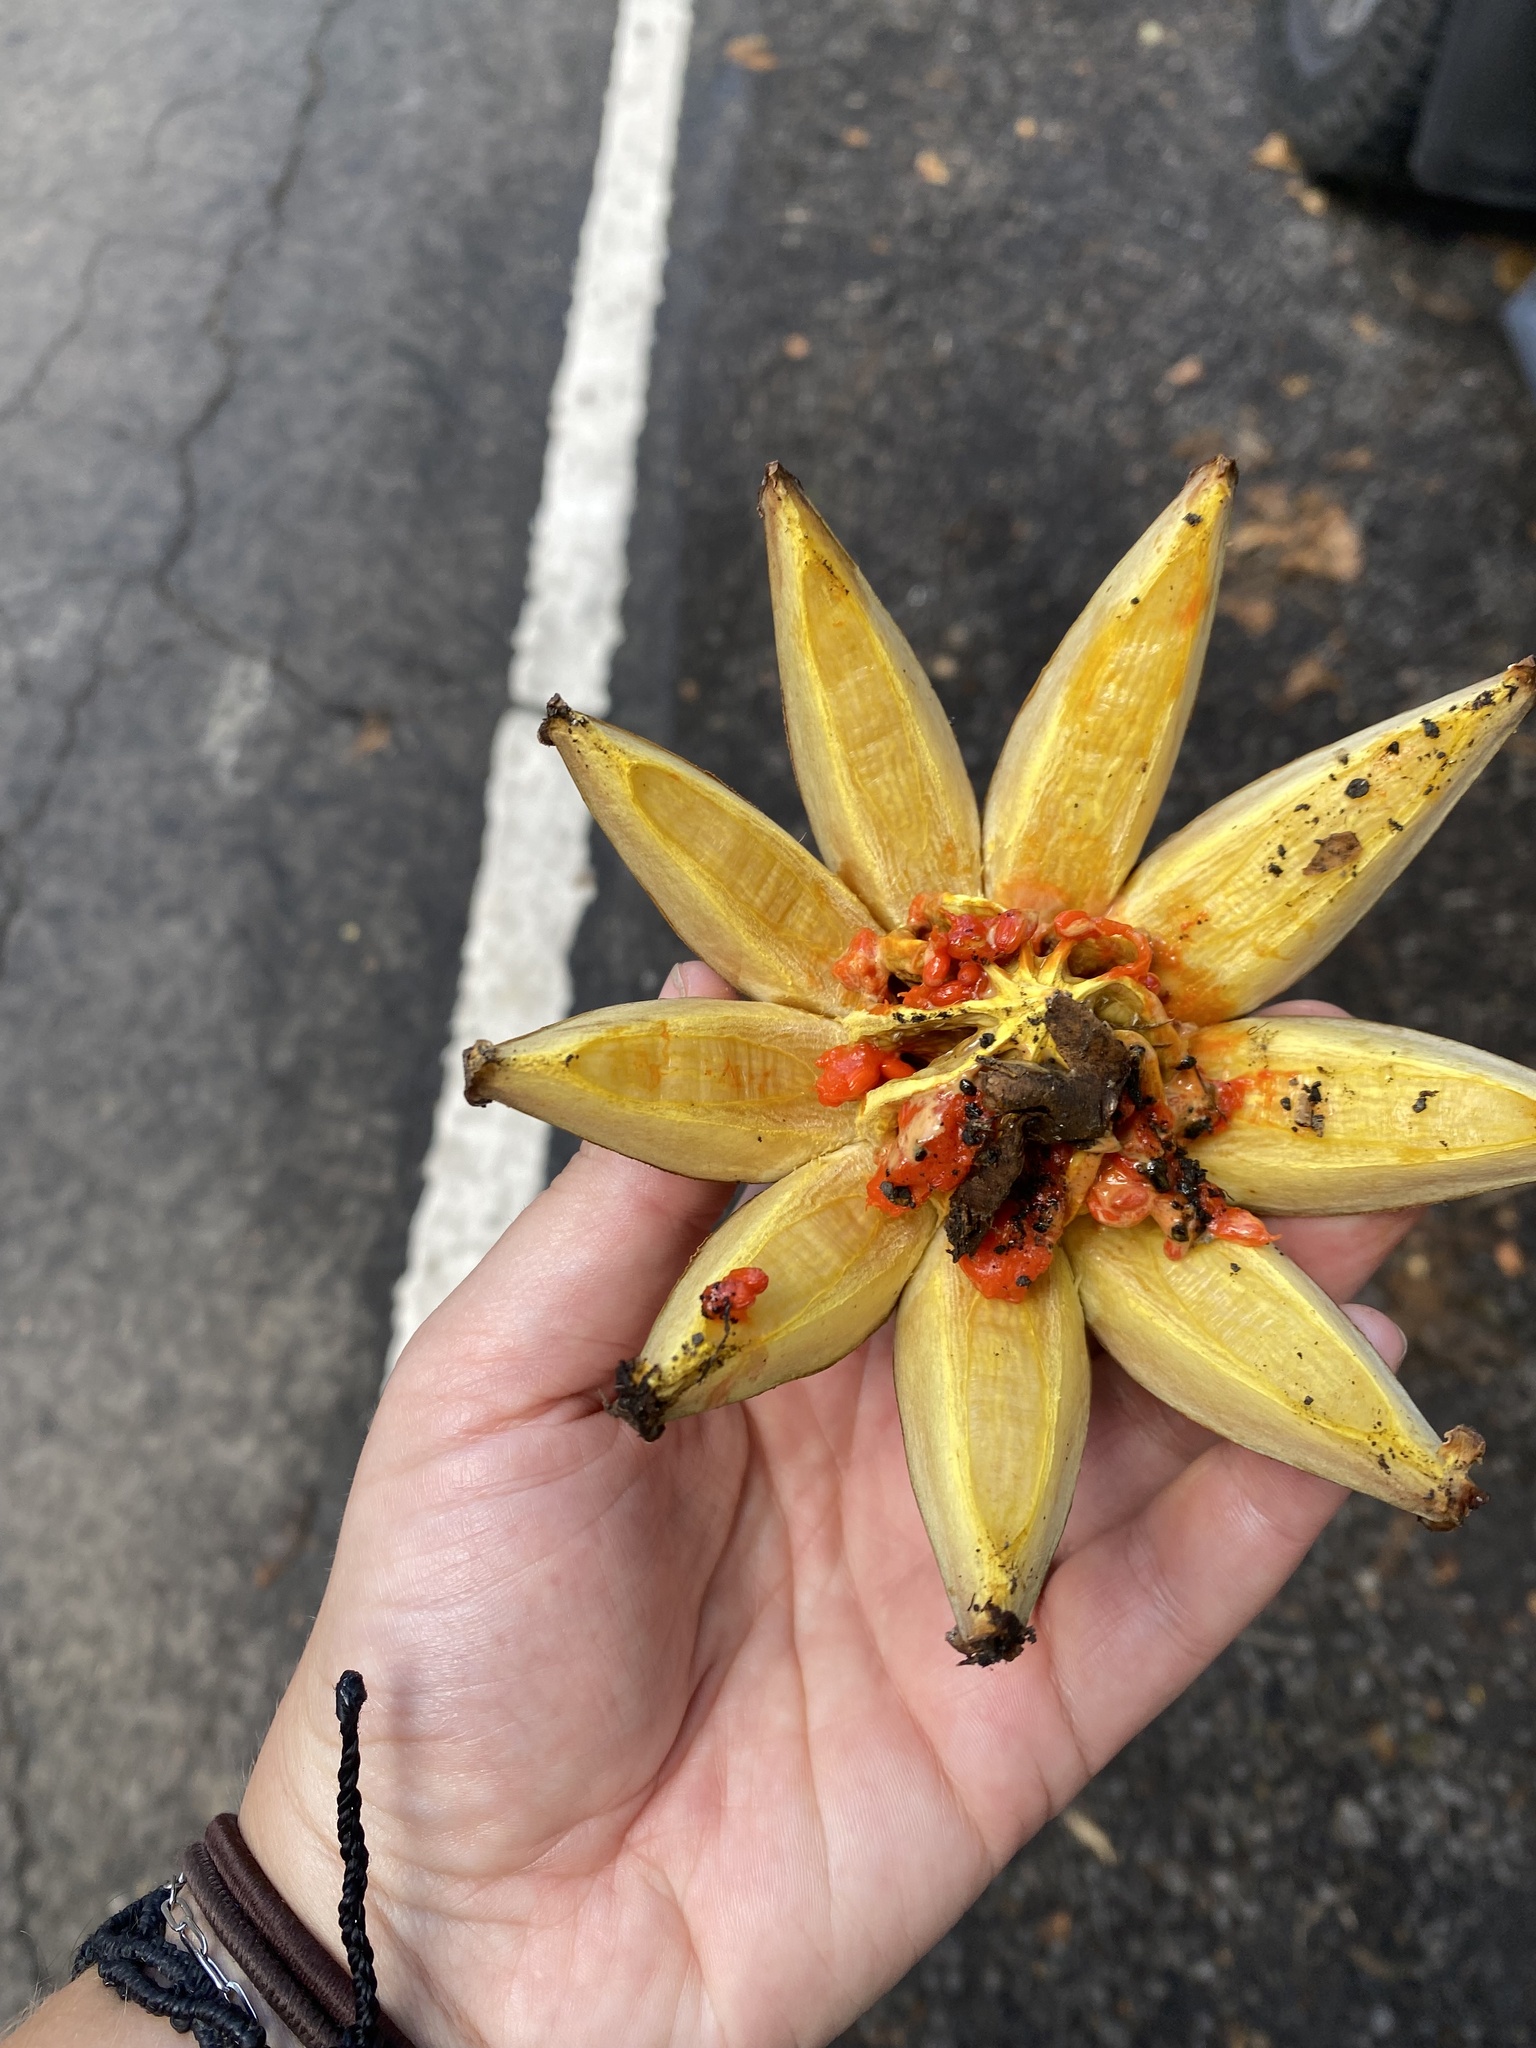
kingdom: Plantae
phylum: Tracheophyta
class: Magnoliopsida
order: Malpighiales
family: Clusiaceae
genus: Clusia
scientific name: Clusia rosea
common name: Scotch attorney
